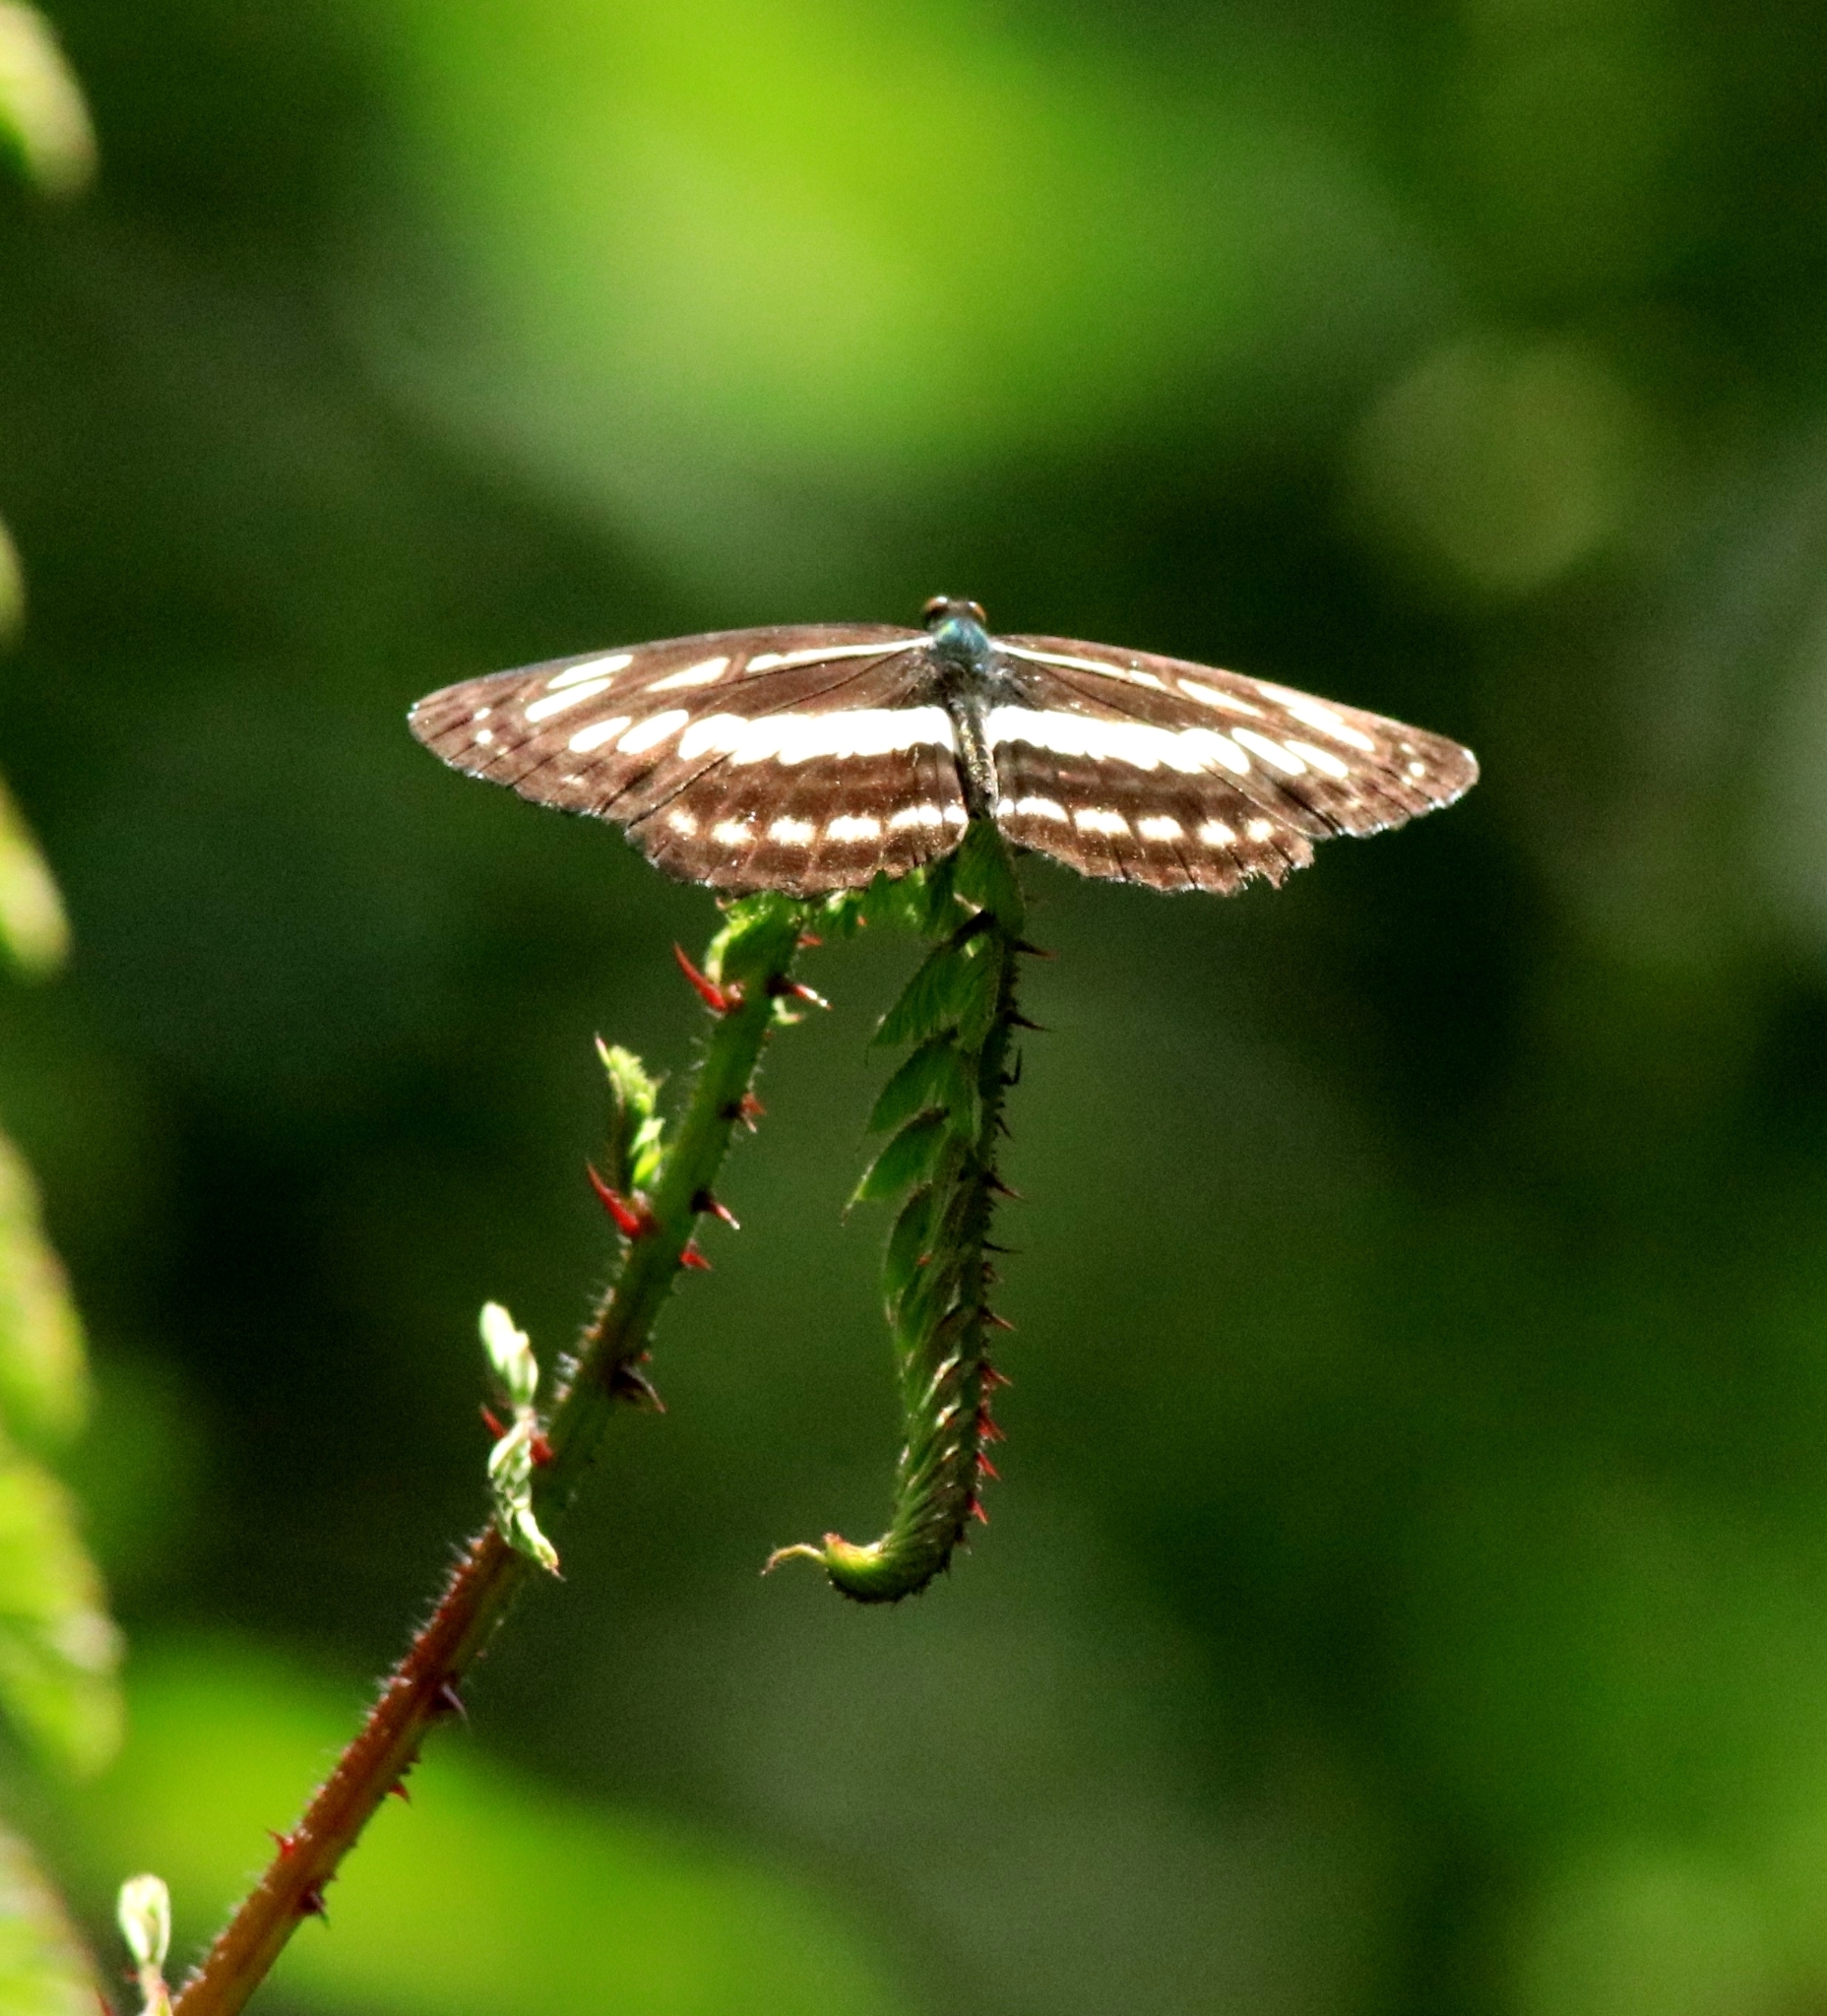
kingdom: Animalia
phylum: Arthropoda
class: Insecta
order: Lepidoptera
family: Nymphalidae
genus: Neptis
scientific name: Neptis hylas
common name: Common sailer
